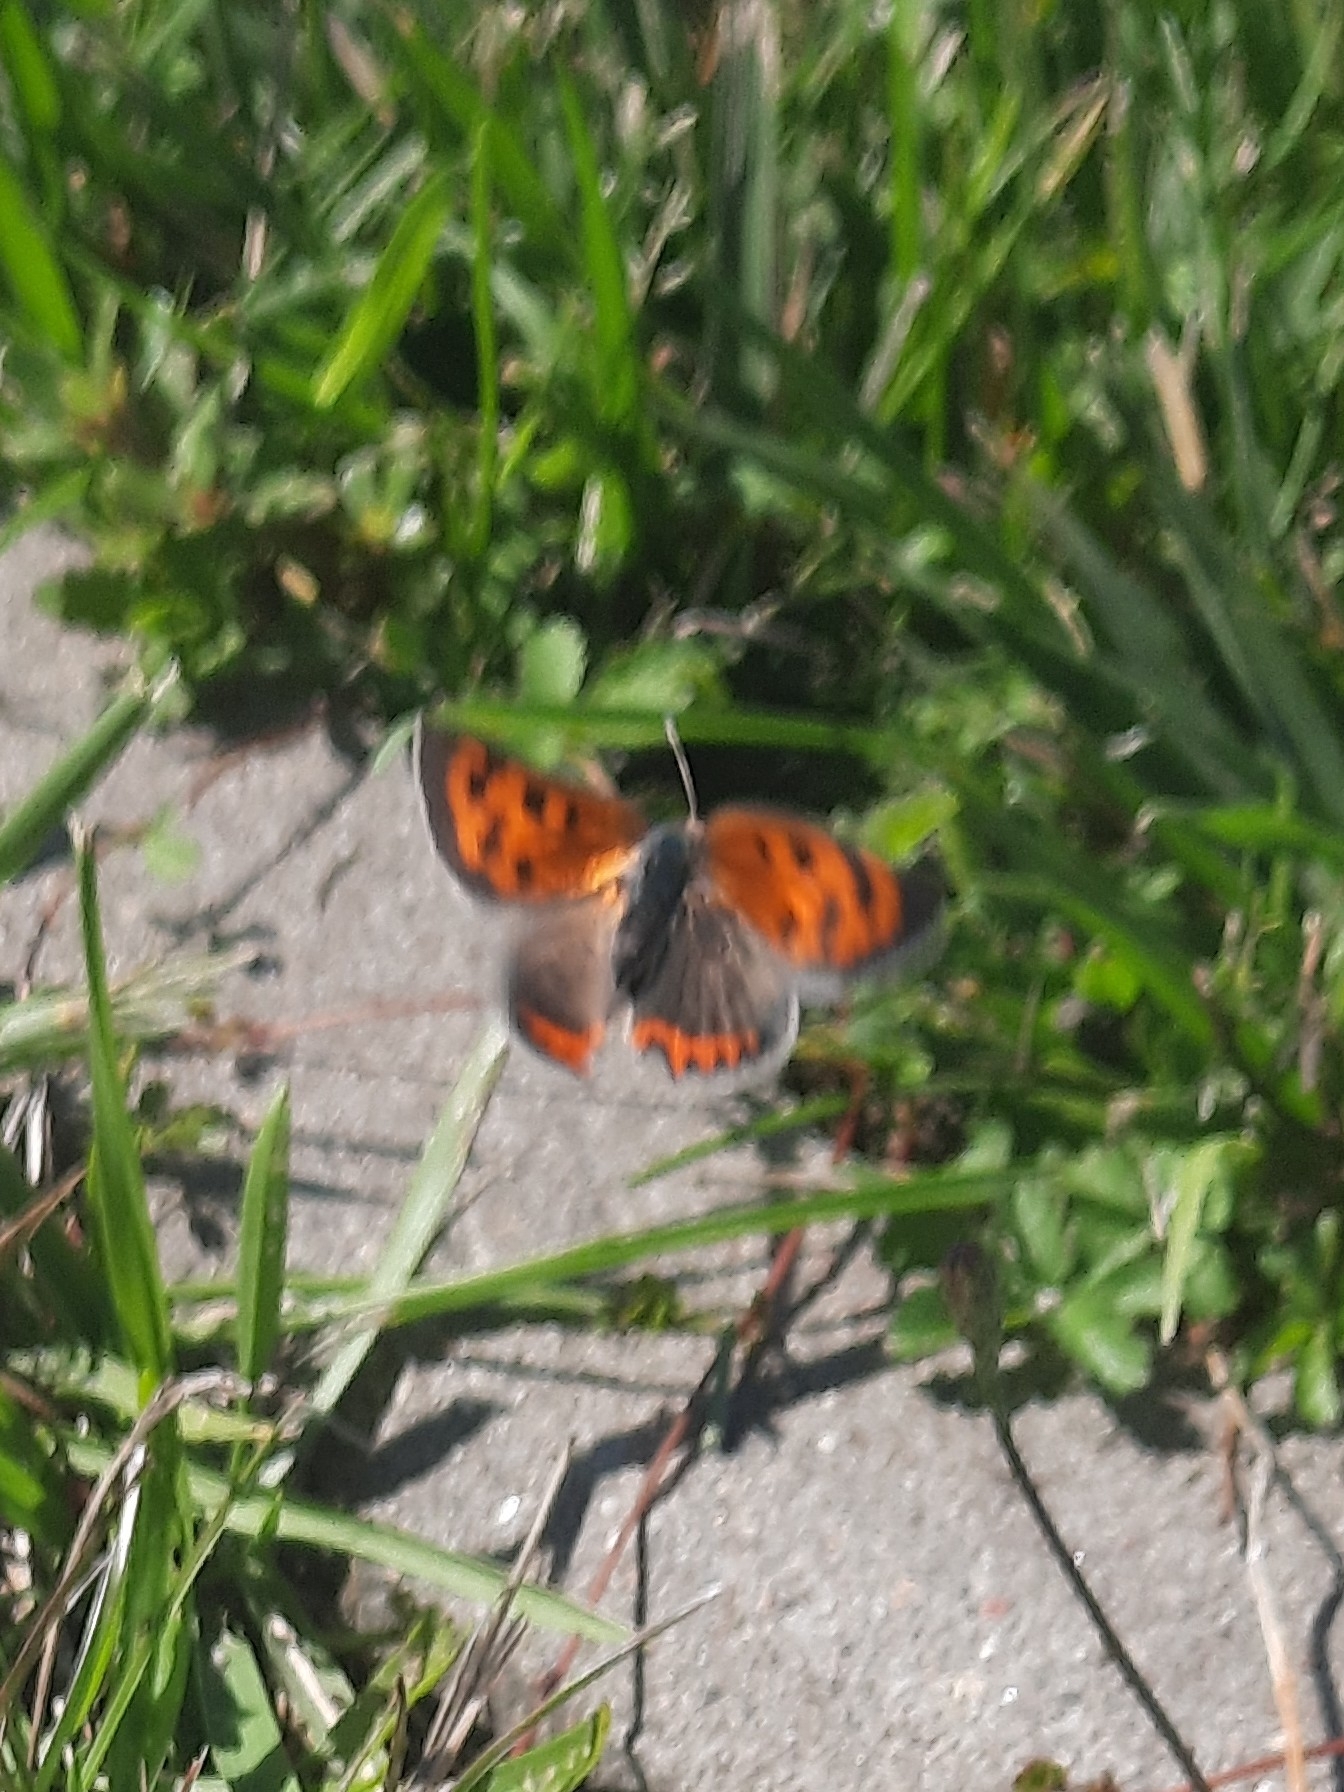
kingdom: Animalia
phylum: Arthropoda
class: Insecta
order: Lepidoptera
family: Lycaenidae
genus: Lycaena
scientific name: Lycaena phlaeas
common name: Small copper
